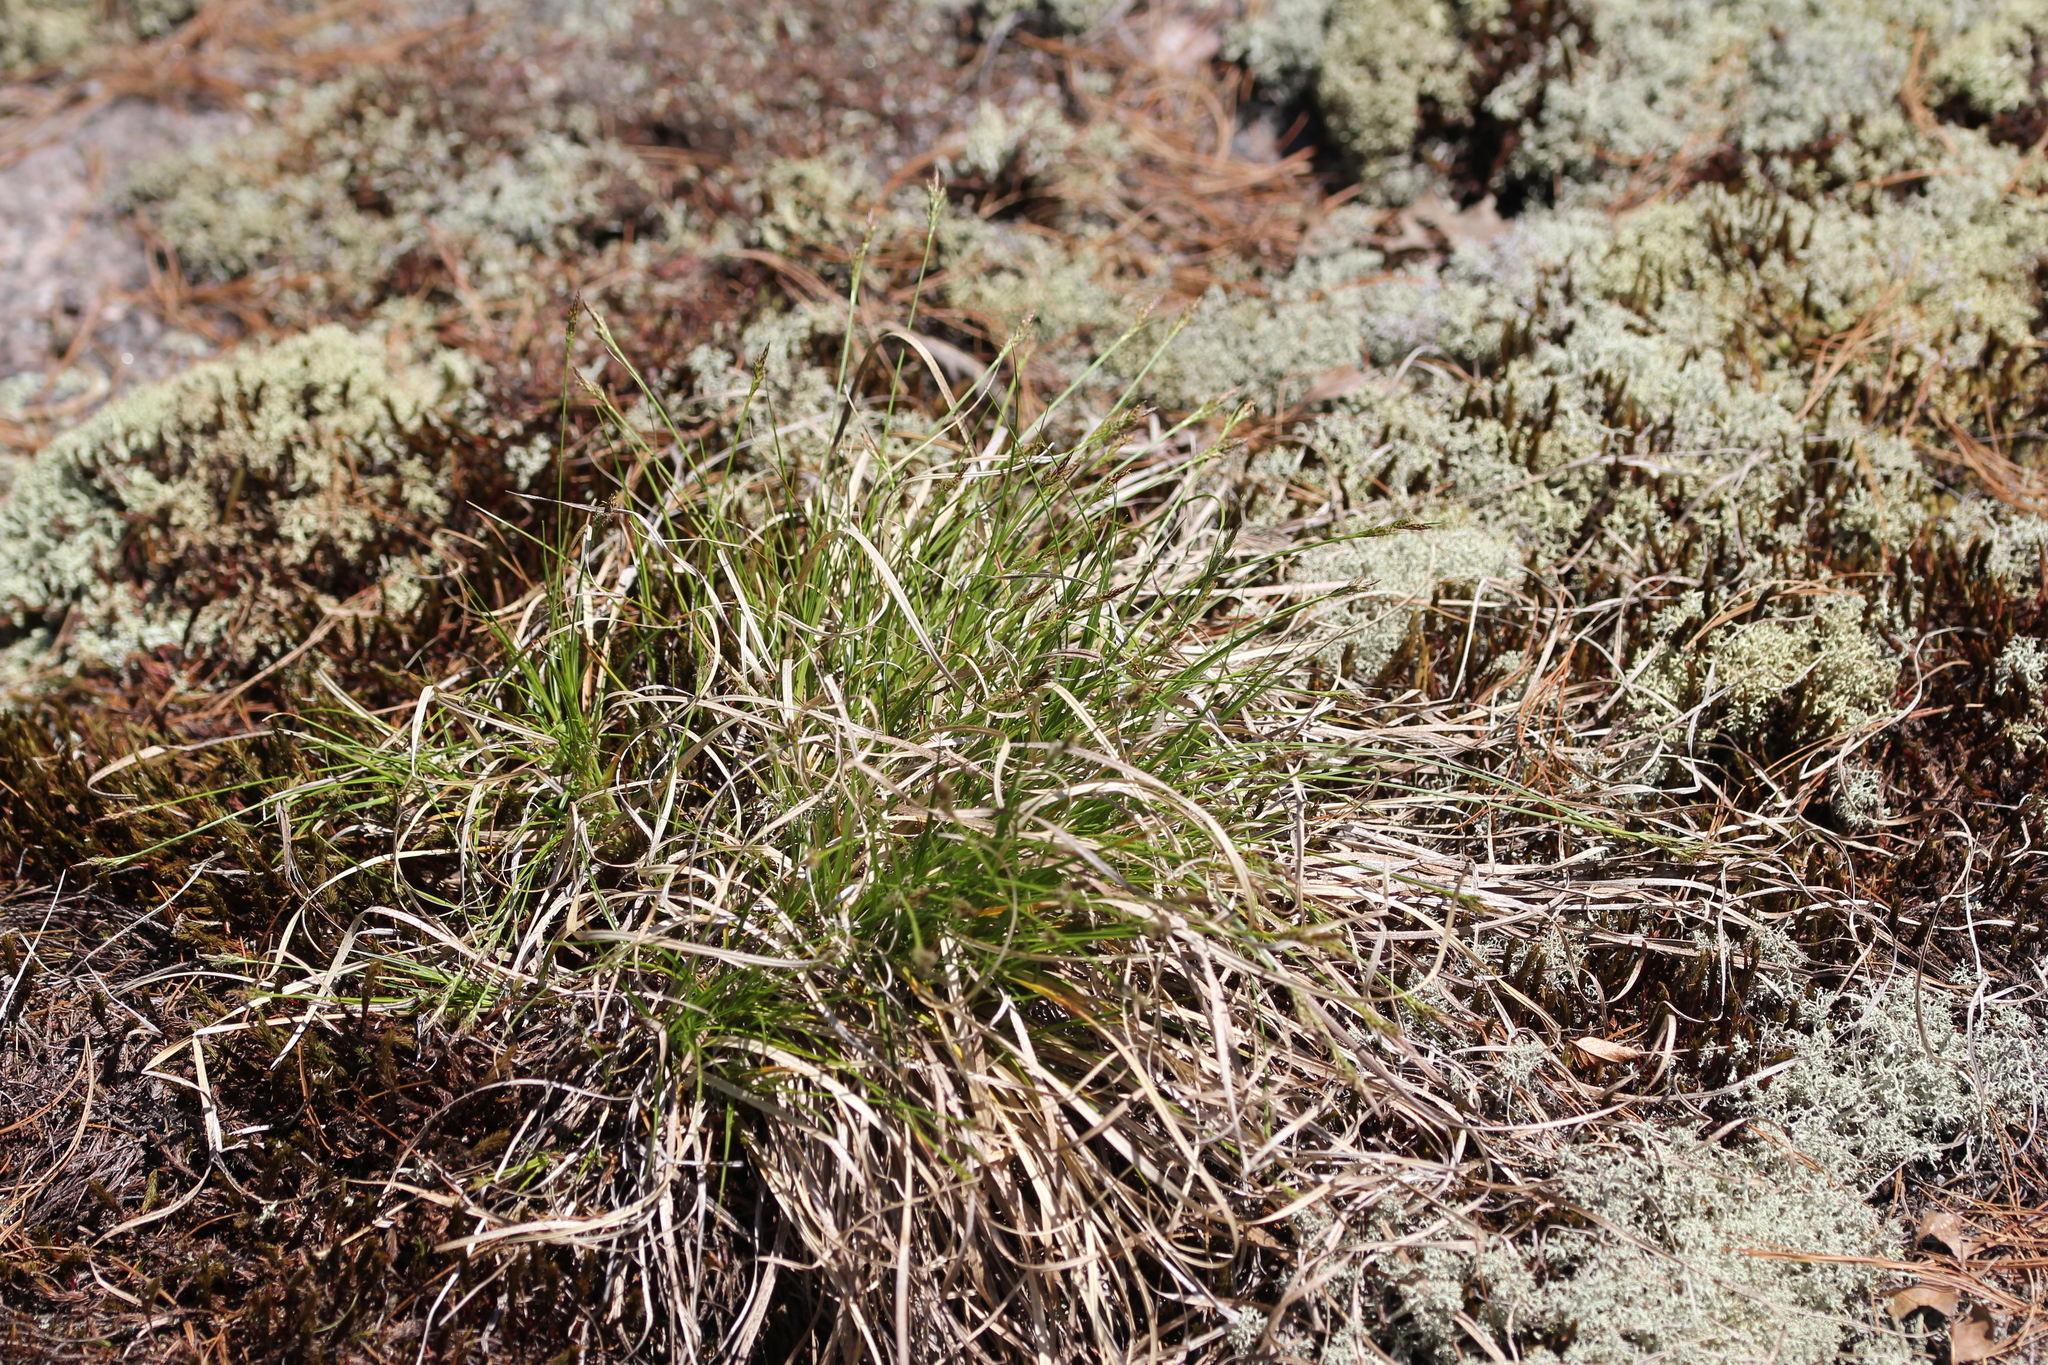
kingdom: Plantae
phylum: Tracheophyta
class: Liliopsida
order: Poales
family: Cyperaceae
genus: Carex
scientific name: Carex albicans
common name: Bellow-beaked sedge
